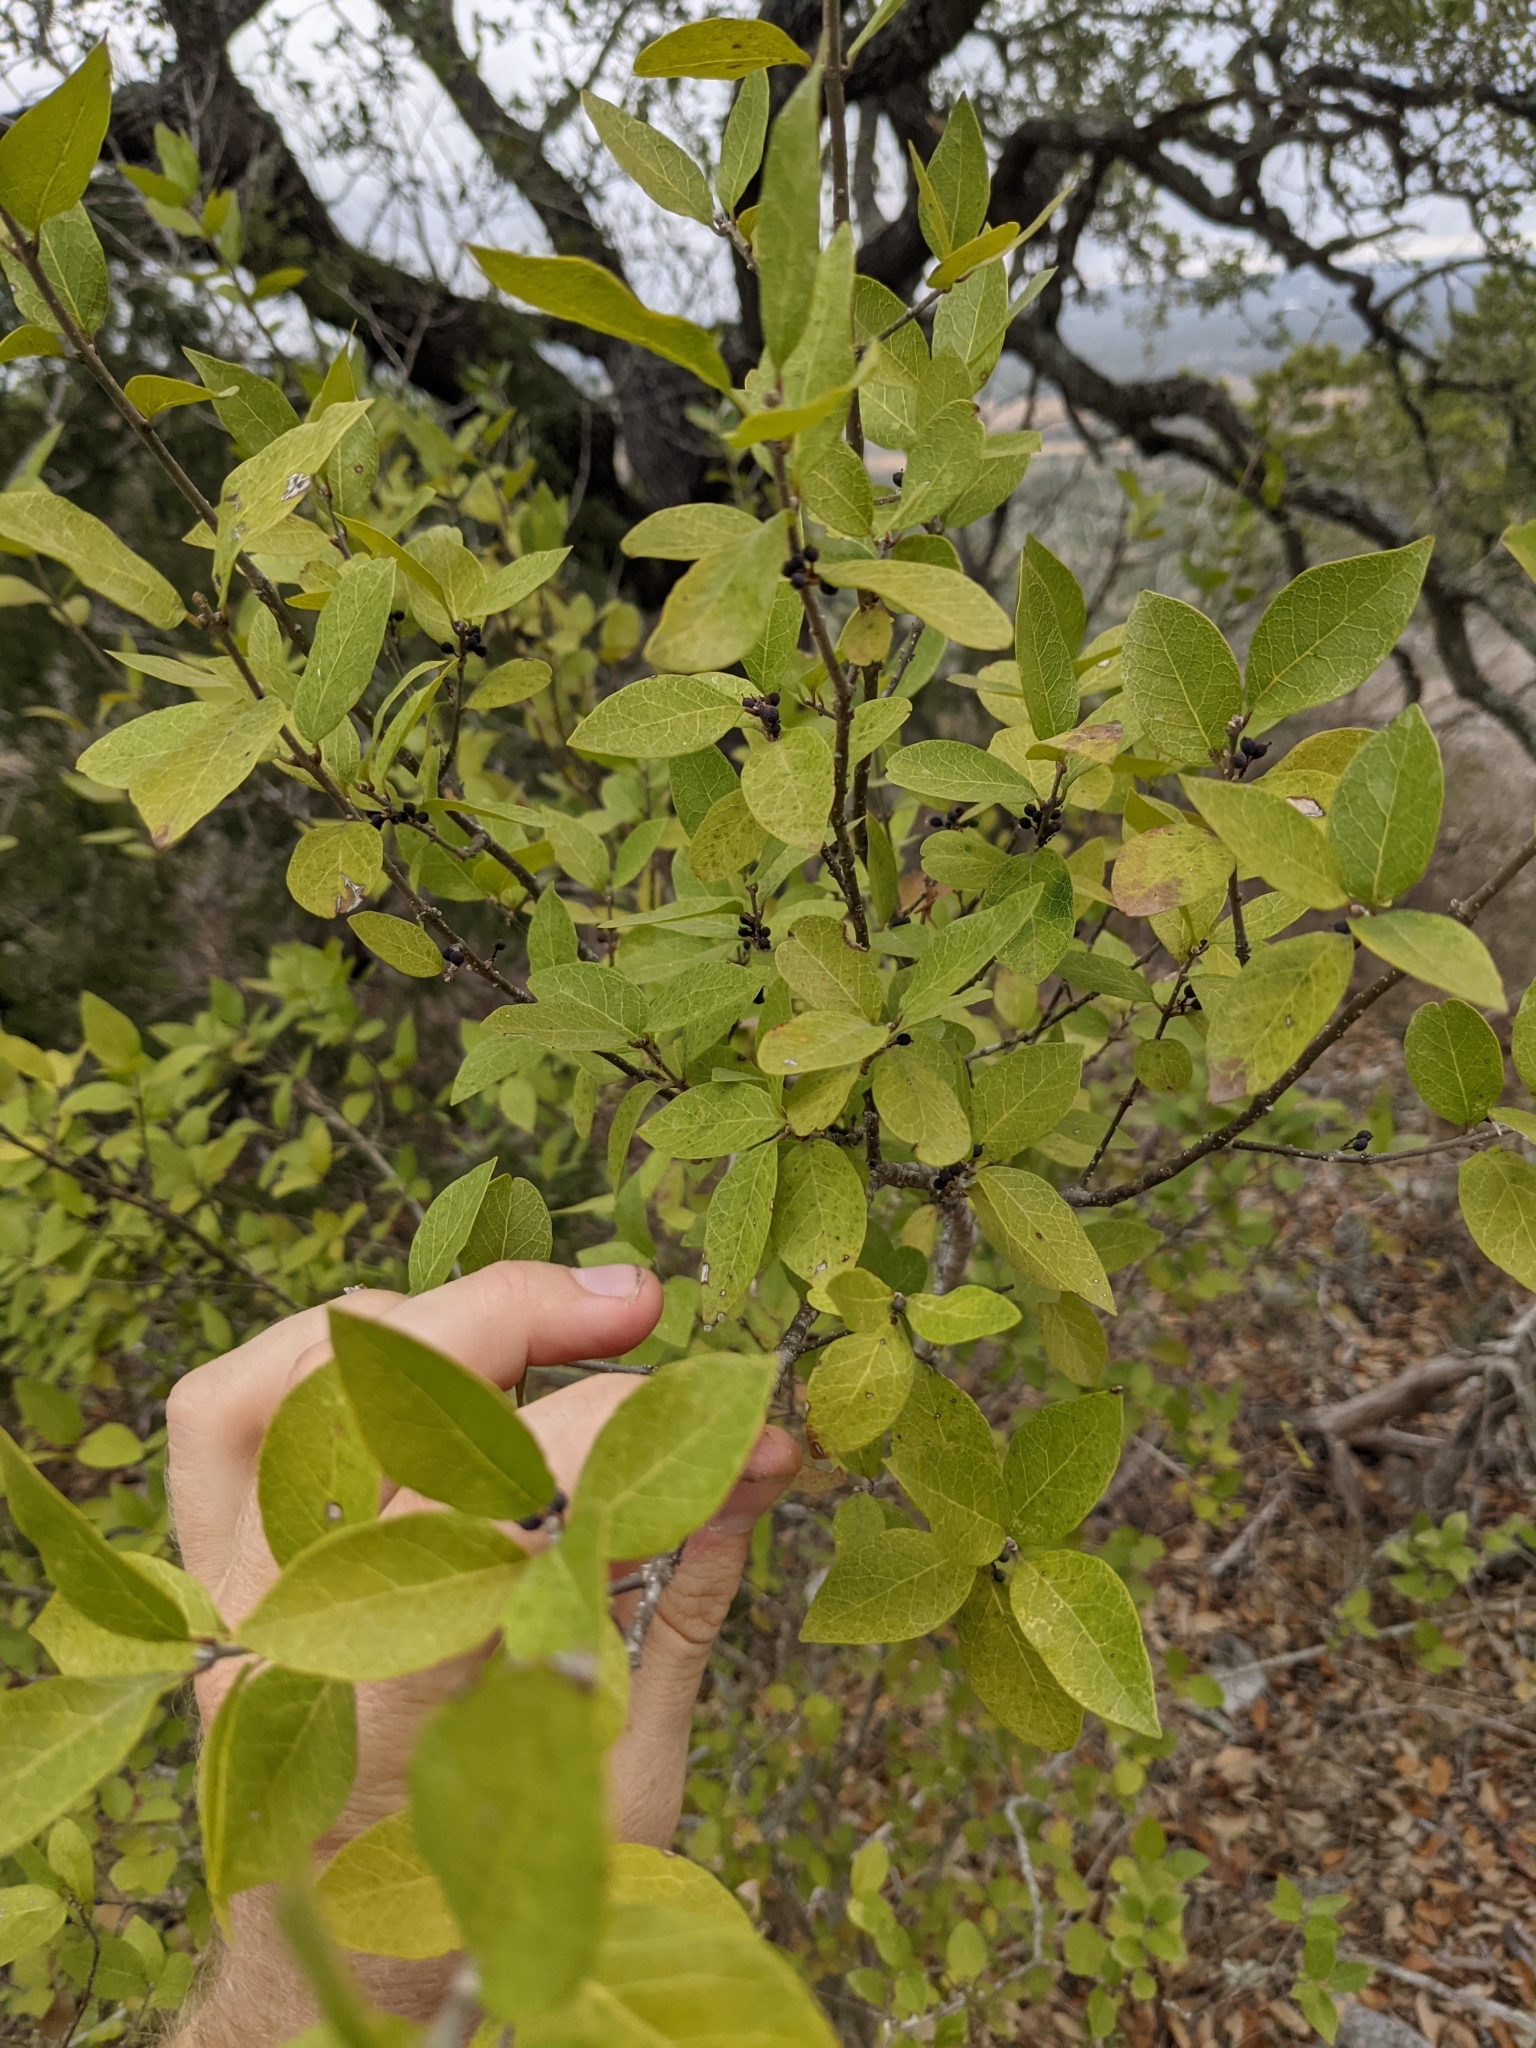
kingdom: Plantae
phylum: Tracheophyta
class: Magnoliopsida
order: Lamiales
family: Oleaceae
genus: Forestiera
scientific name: Forestiera reticulata
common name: Netleaf swamp-privet
